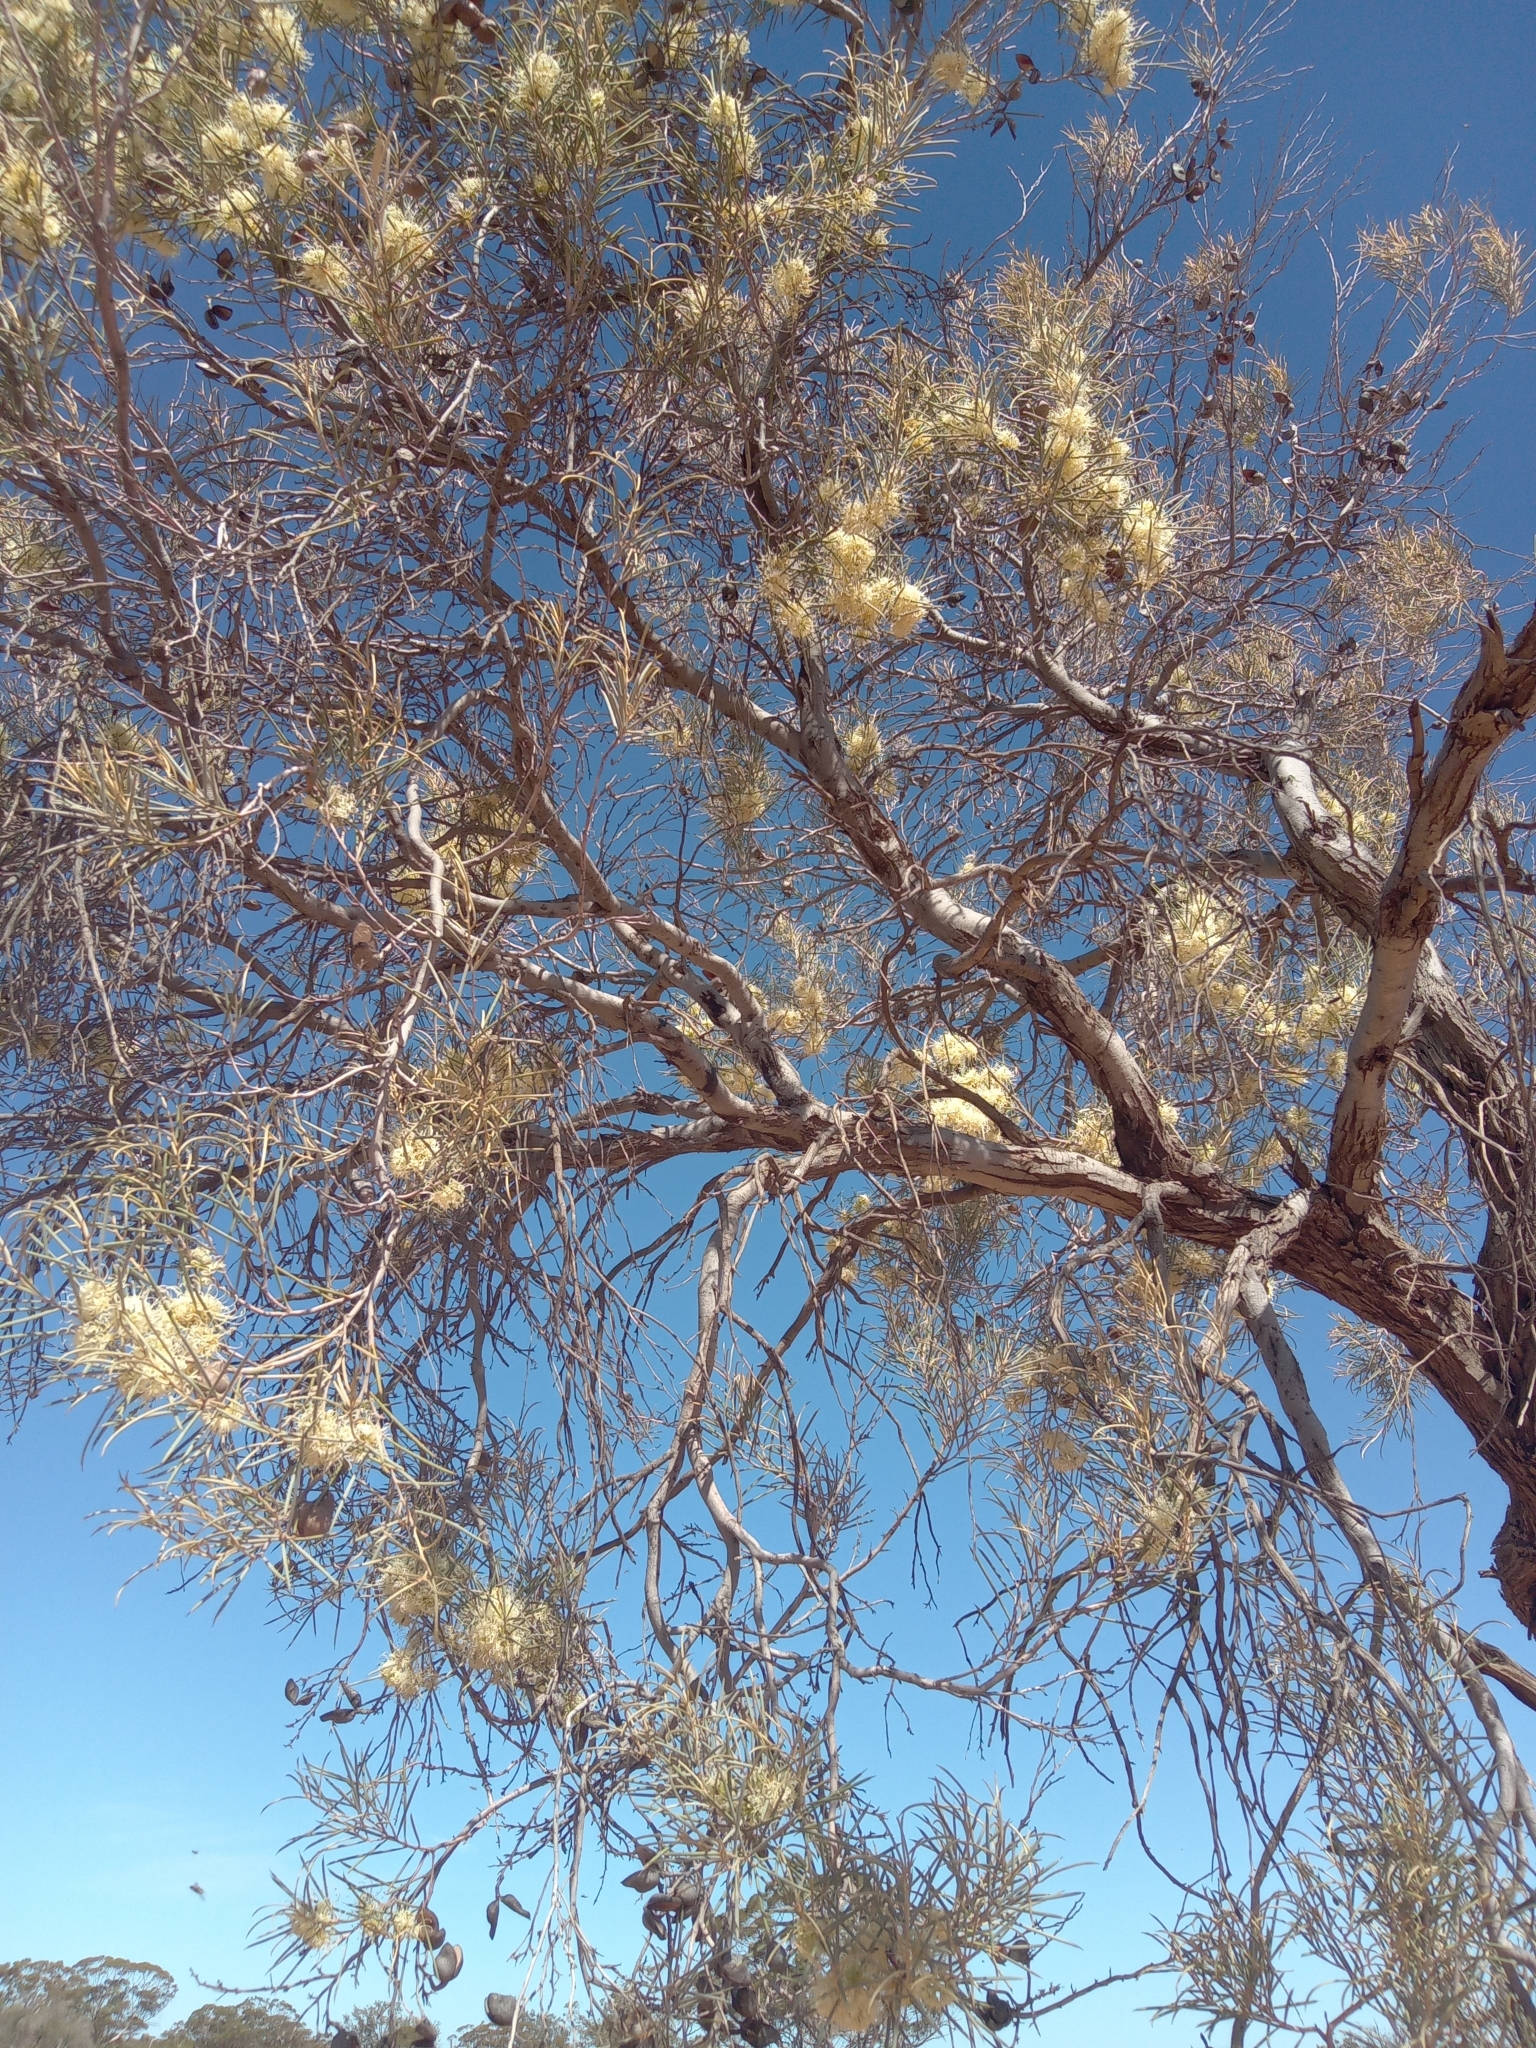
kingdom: Plantae
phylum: Tracheophyta
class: Magnoliopsida
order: Proteales
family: Proteaceae
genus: Hakea
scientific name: Hakea leucoptera
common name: Pinbush
